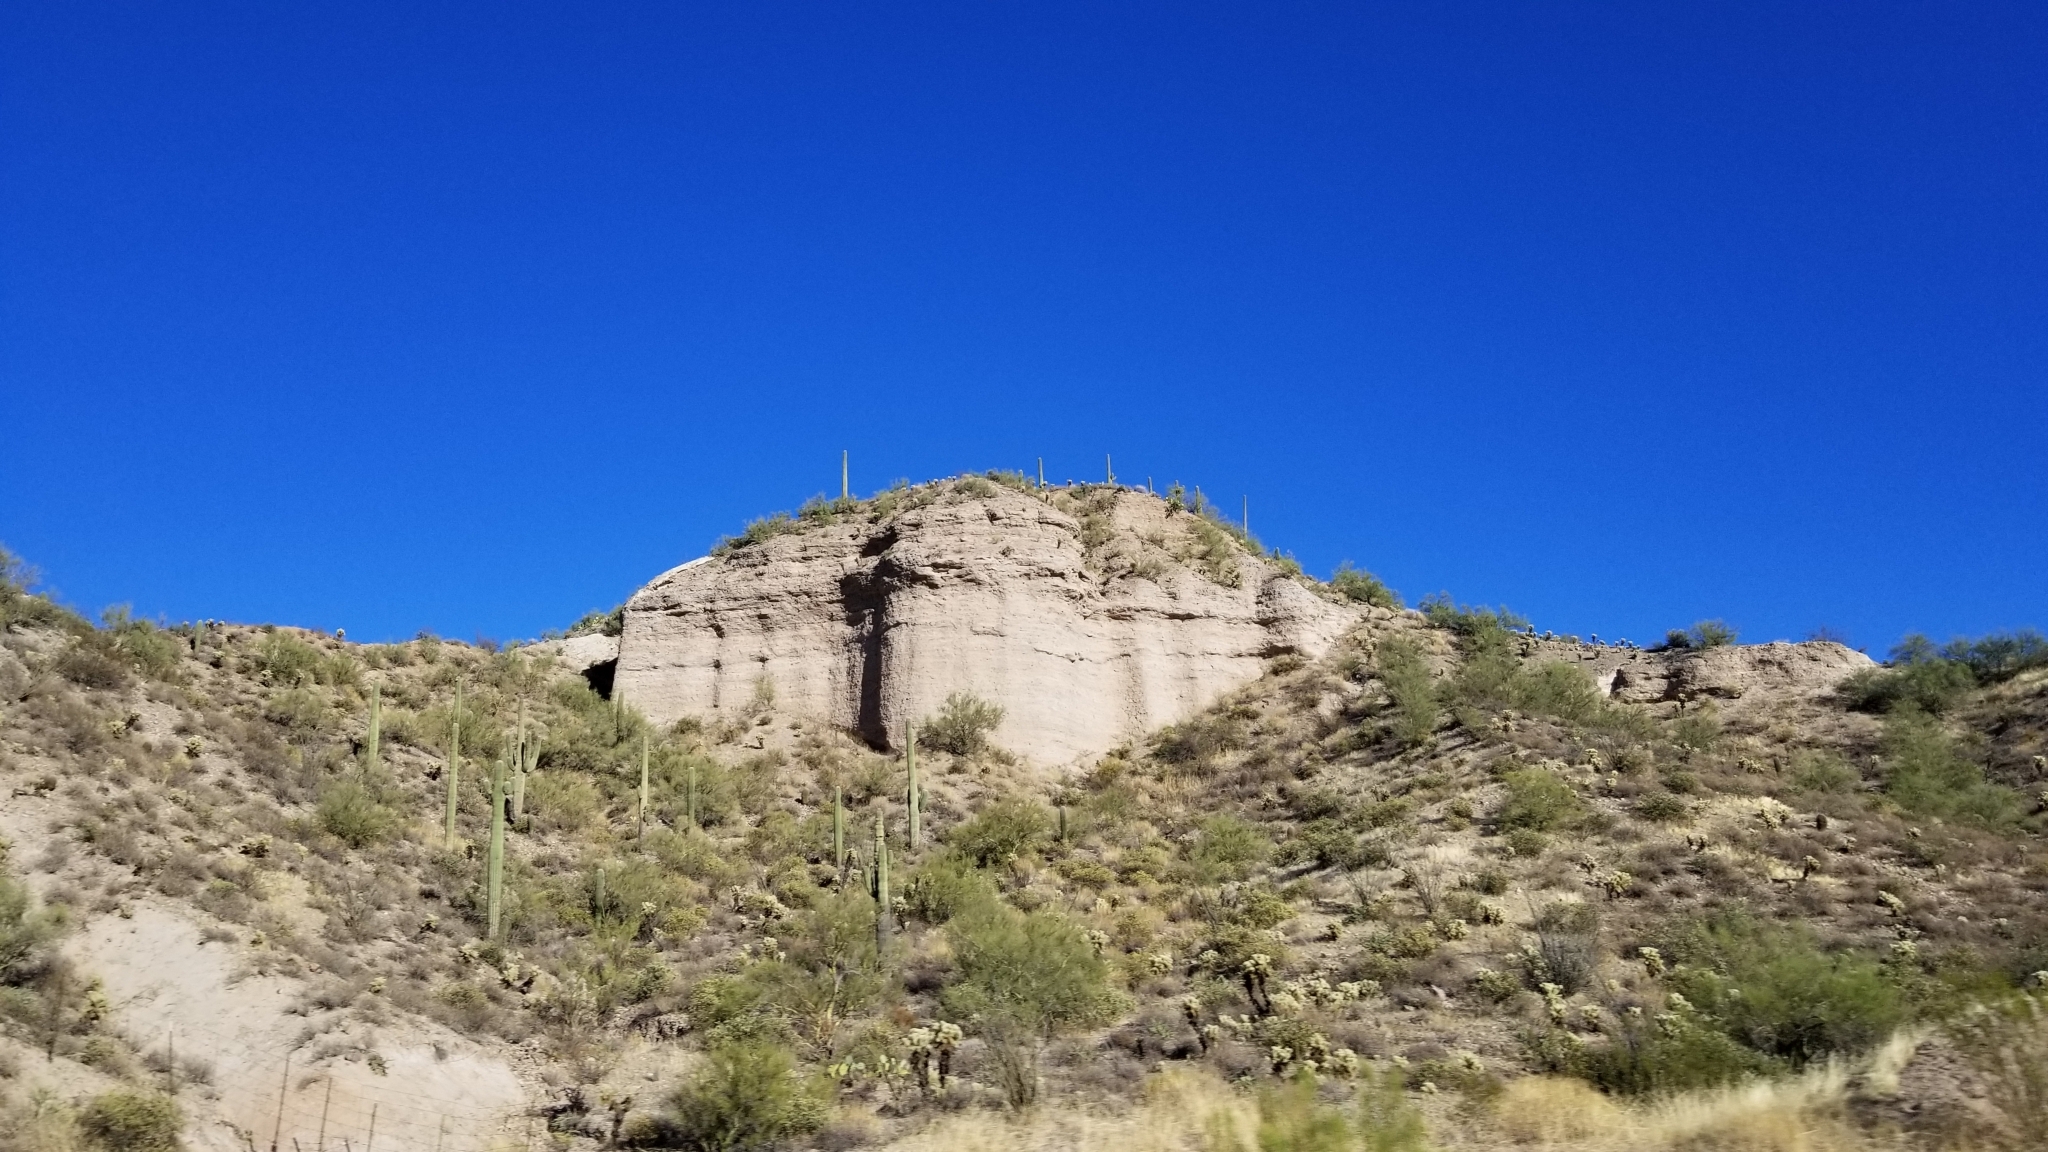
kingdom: Plantae
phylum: Tracheophyta
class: Magnoliopsida
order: Caryophyllales
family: Cactaceae
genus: Carnegiea
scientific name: Carnegiea gigantea
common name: Saguaro
